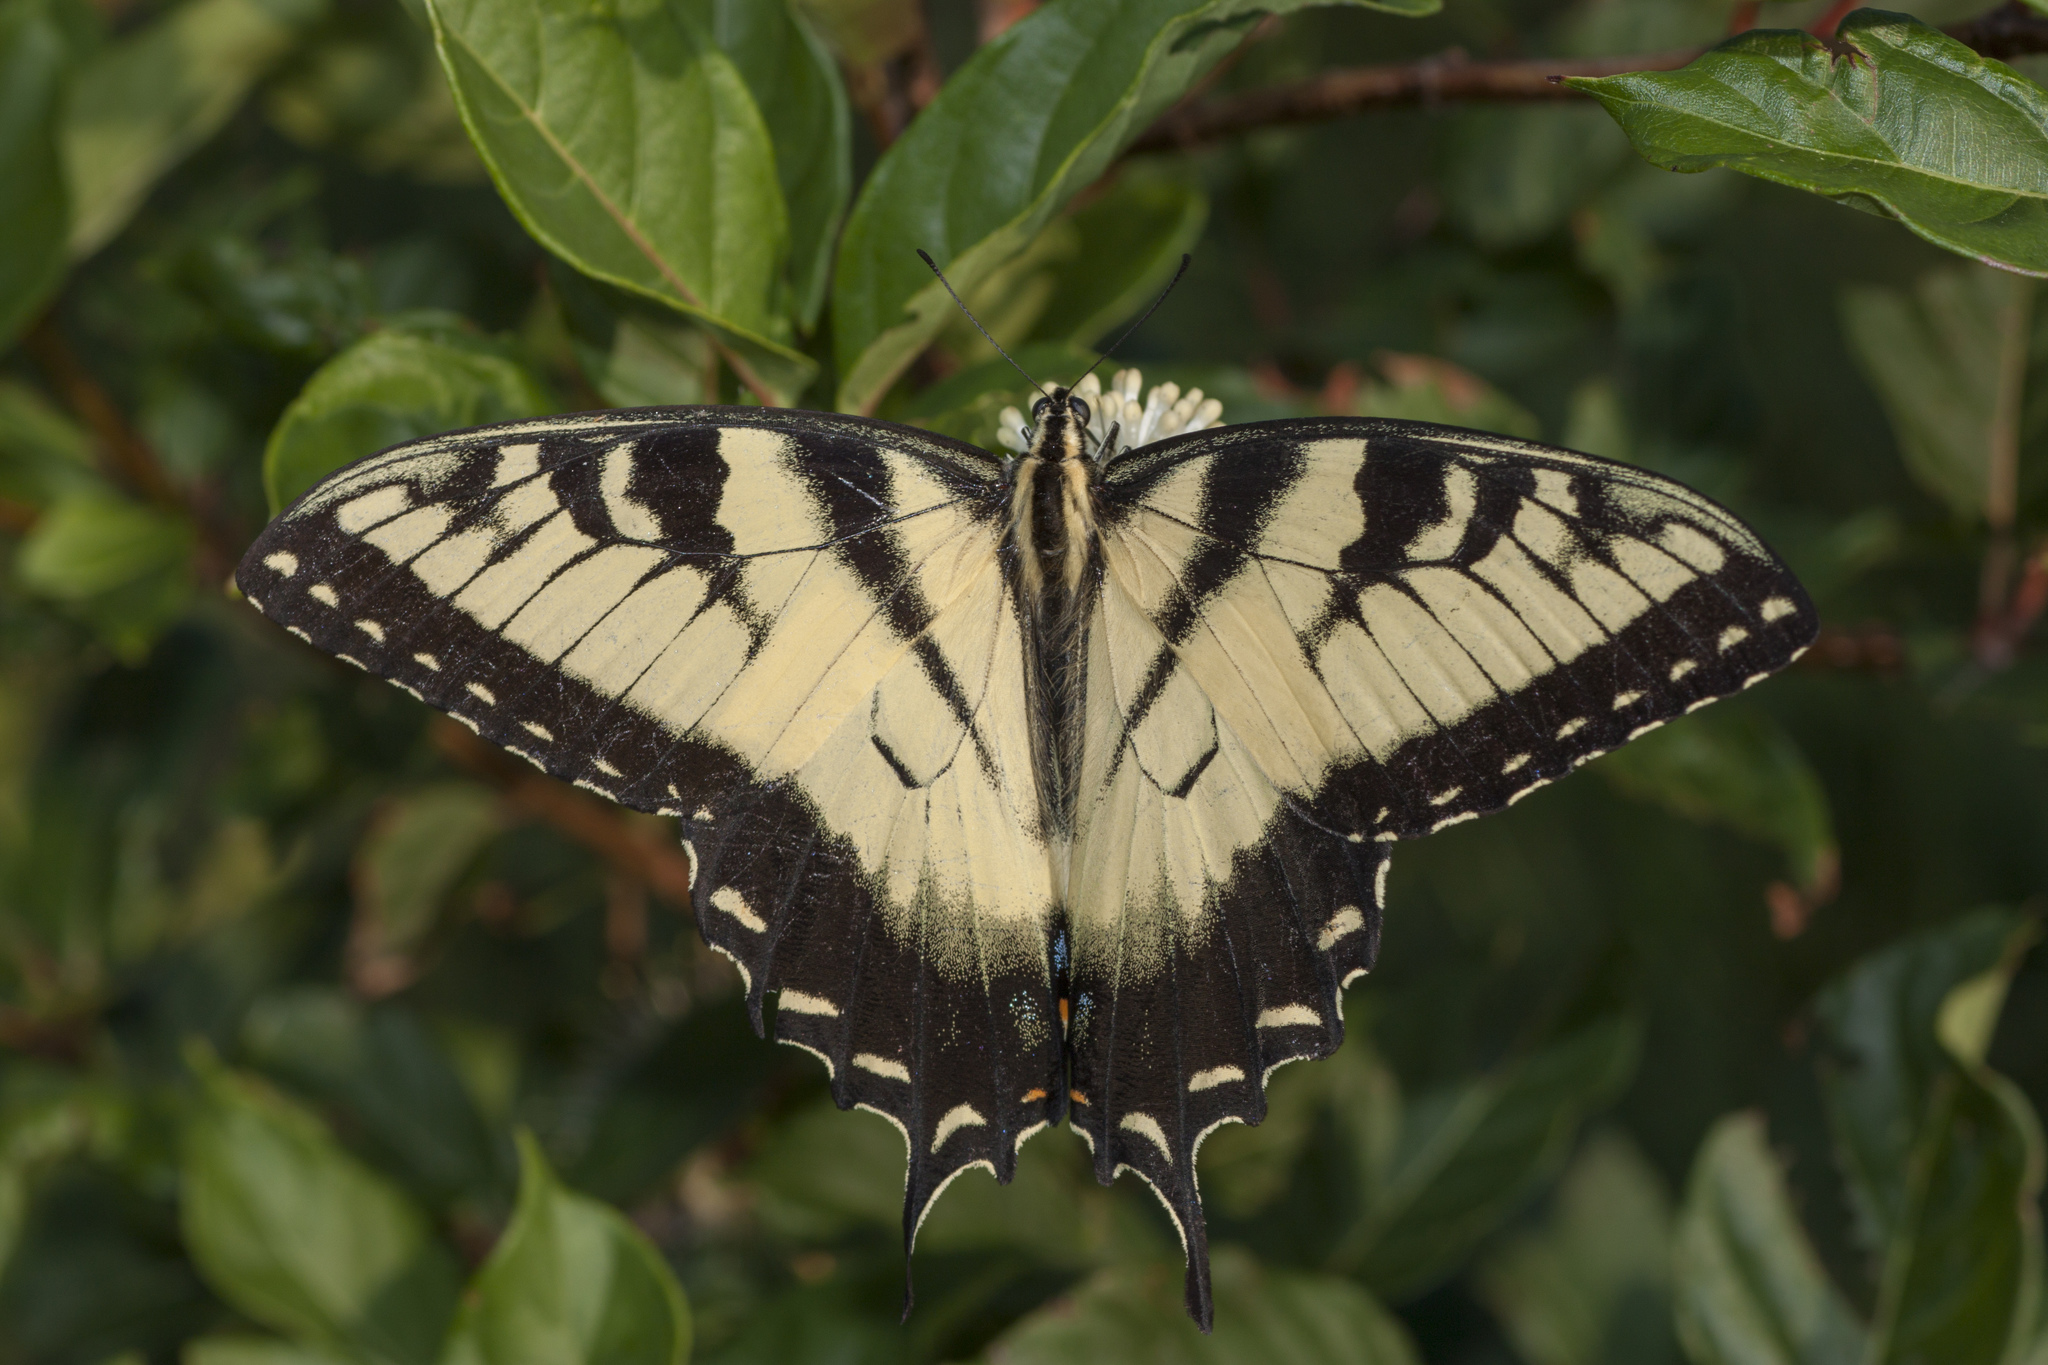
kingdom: Animalia
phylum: Arthropoda
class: Insecta
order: Lepidoptera
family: Papilionidae
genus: Papilio
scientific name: Papilio glaucus
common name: Tiger swallowtail
